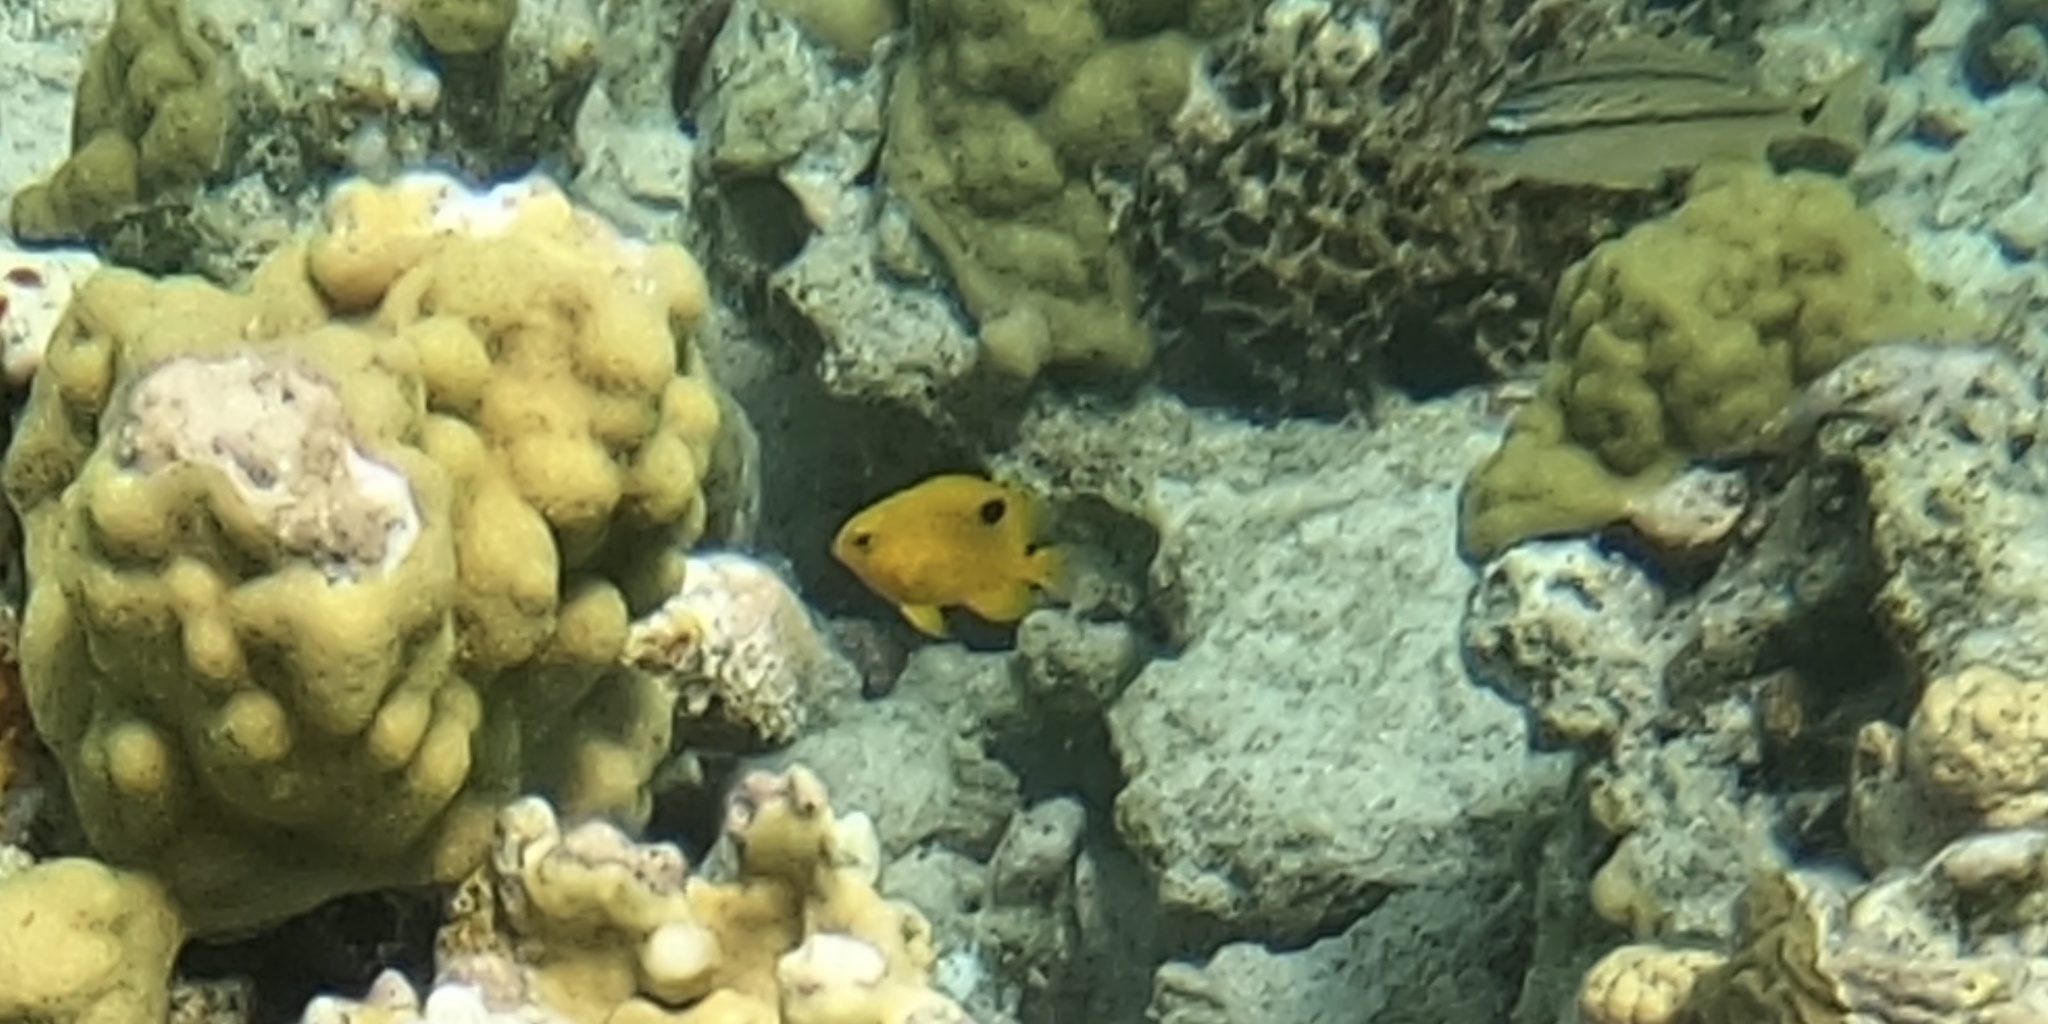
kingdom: Animalia
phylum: Chordata
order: Perciformes
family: Pomacentridae
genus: Stegastes
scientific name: Stegastes planifrons
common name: Threespot damselfish
